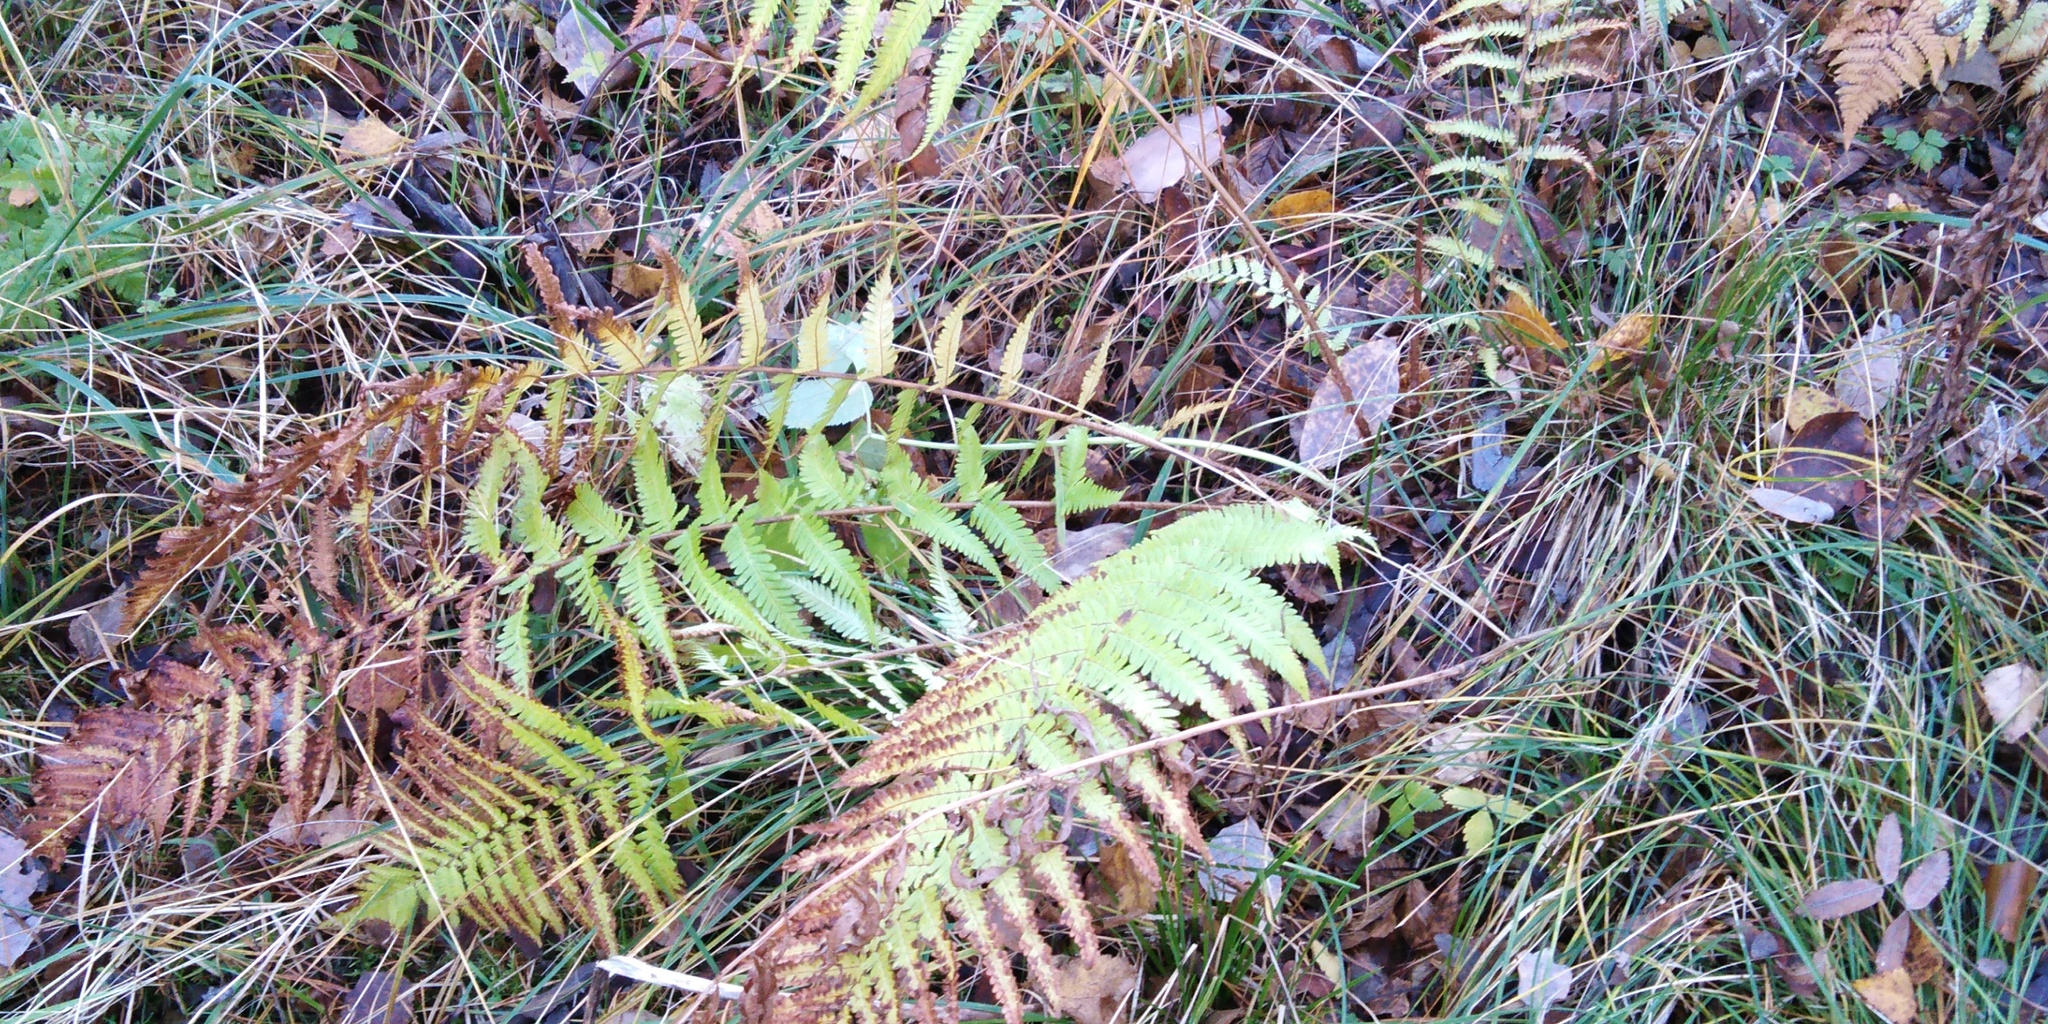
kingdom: Plantae
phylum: Tracheophyta
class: Polypodiopsida
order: Polypodiales
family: Dryopteridaceae
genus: Dryopteris
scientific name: Dryopteris filix-mas
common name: Male fern
